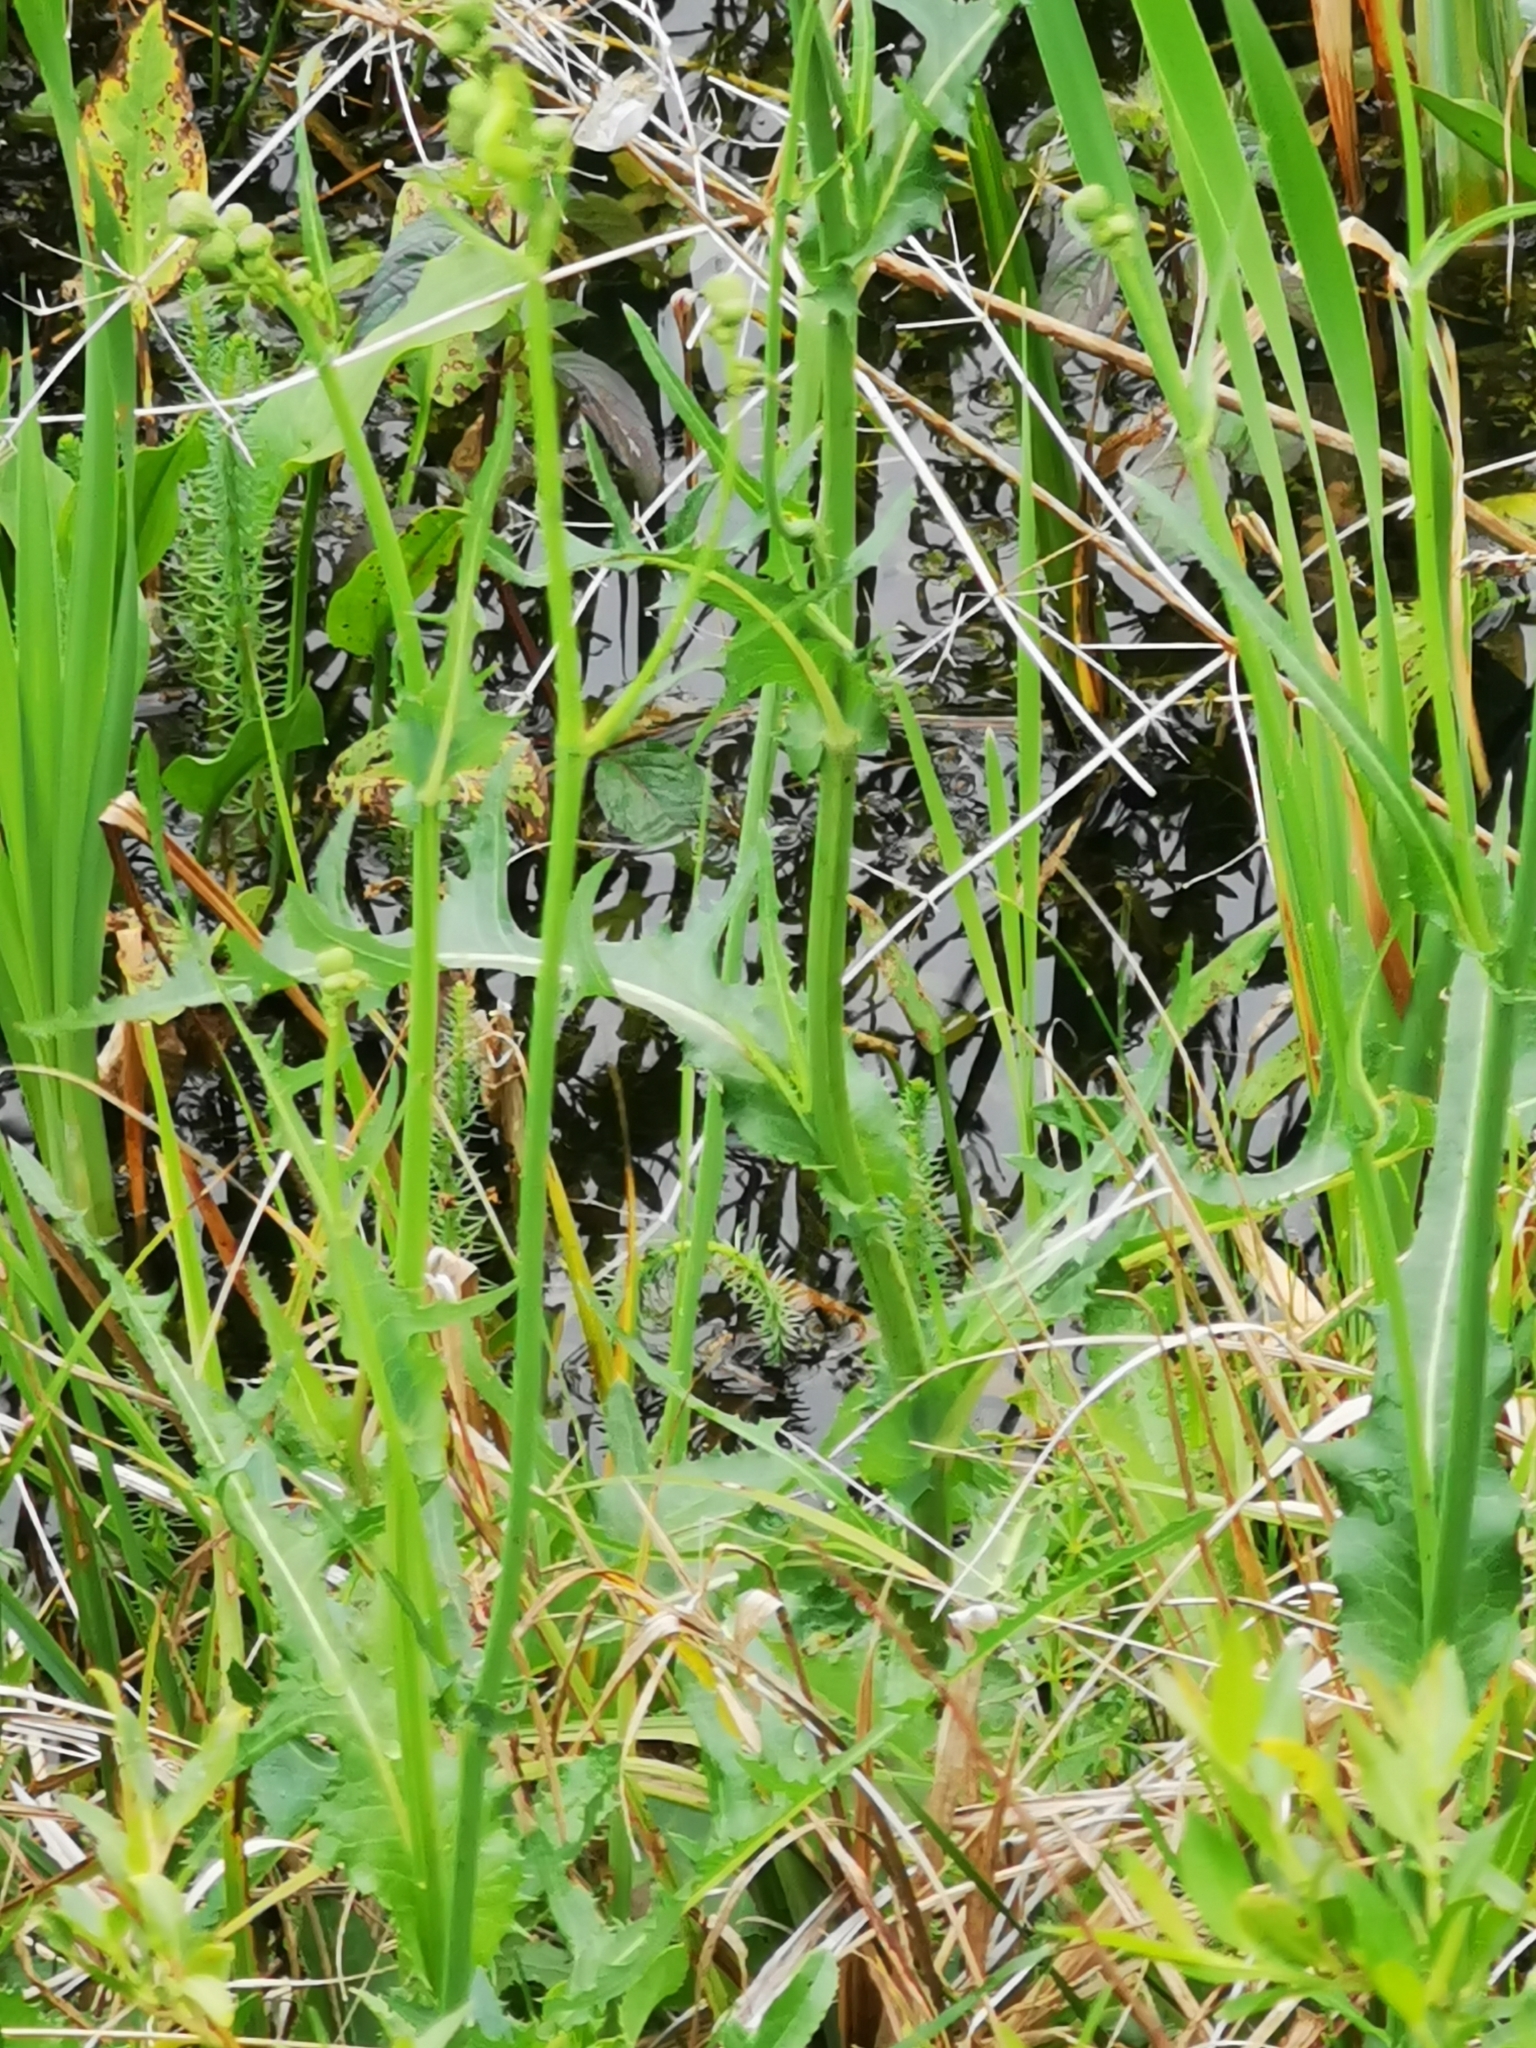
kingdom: Plantae
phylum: Tracheophyta
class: Magnoliopsida
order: Asterales
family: Asteraceae
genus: Crepis
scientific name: Crepis paludosa
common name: Marsh hawk's-beard
